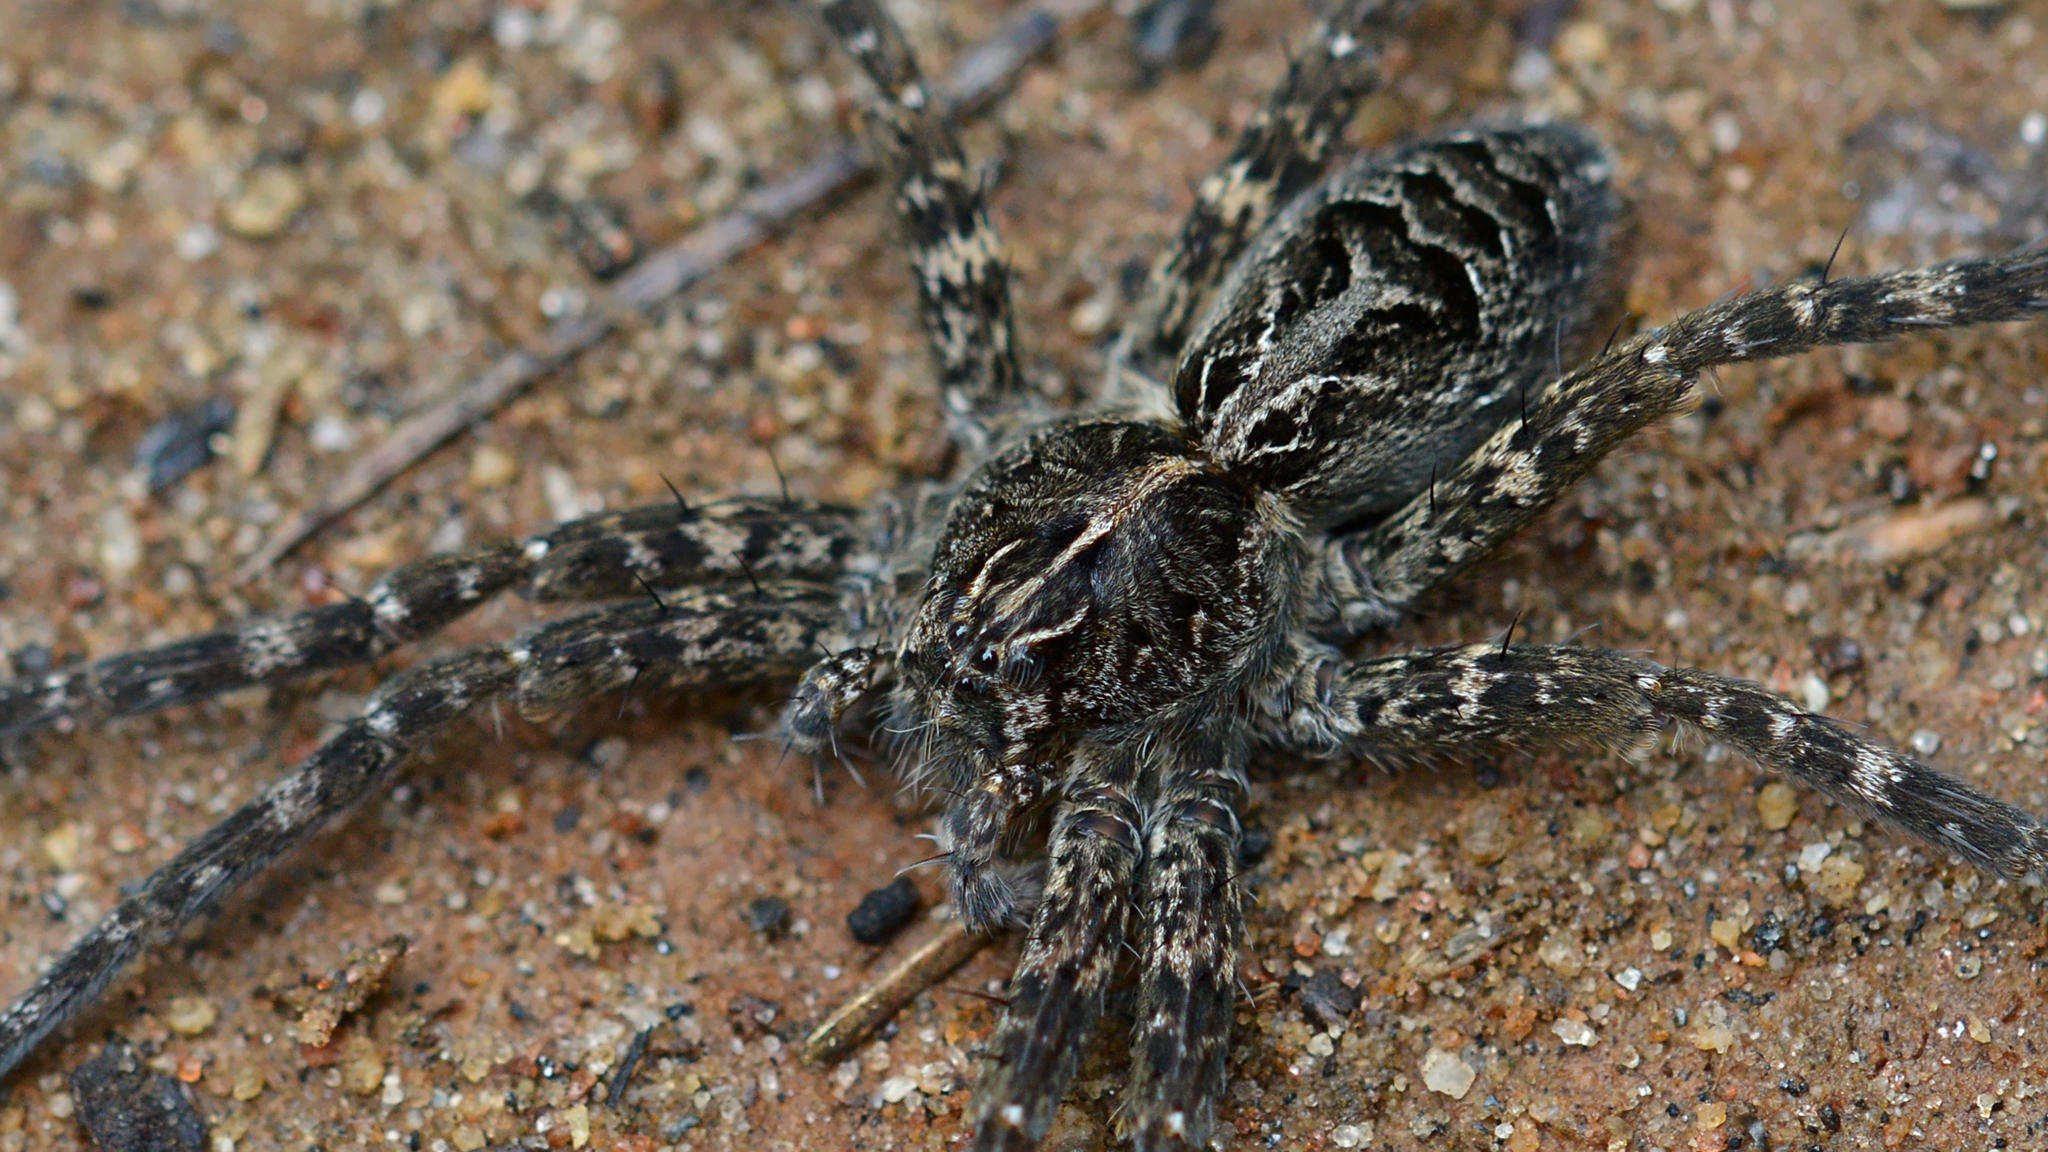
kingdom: Animalia
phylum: Arthropoda
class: Arachnida
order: Araneae
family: Pisauridae
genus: Dolomedes
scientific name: Dolomedes scriptus
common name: Striped fishing spider
